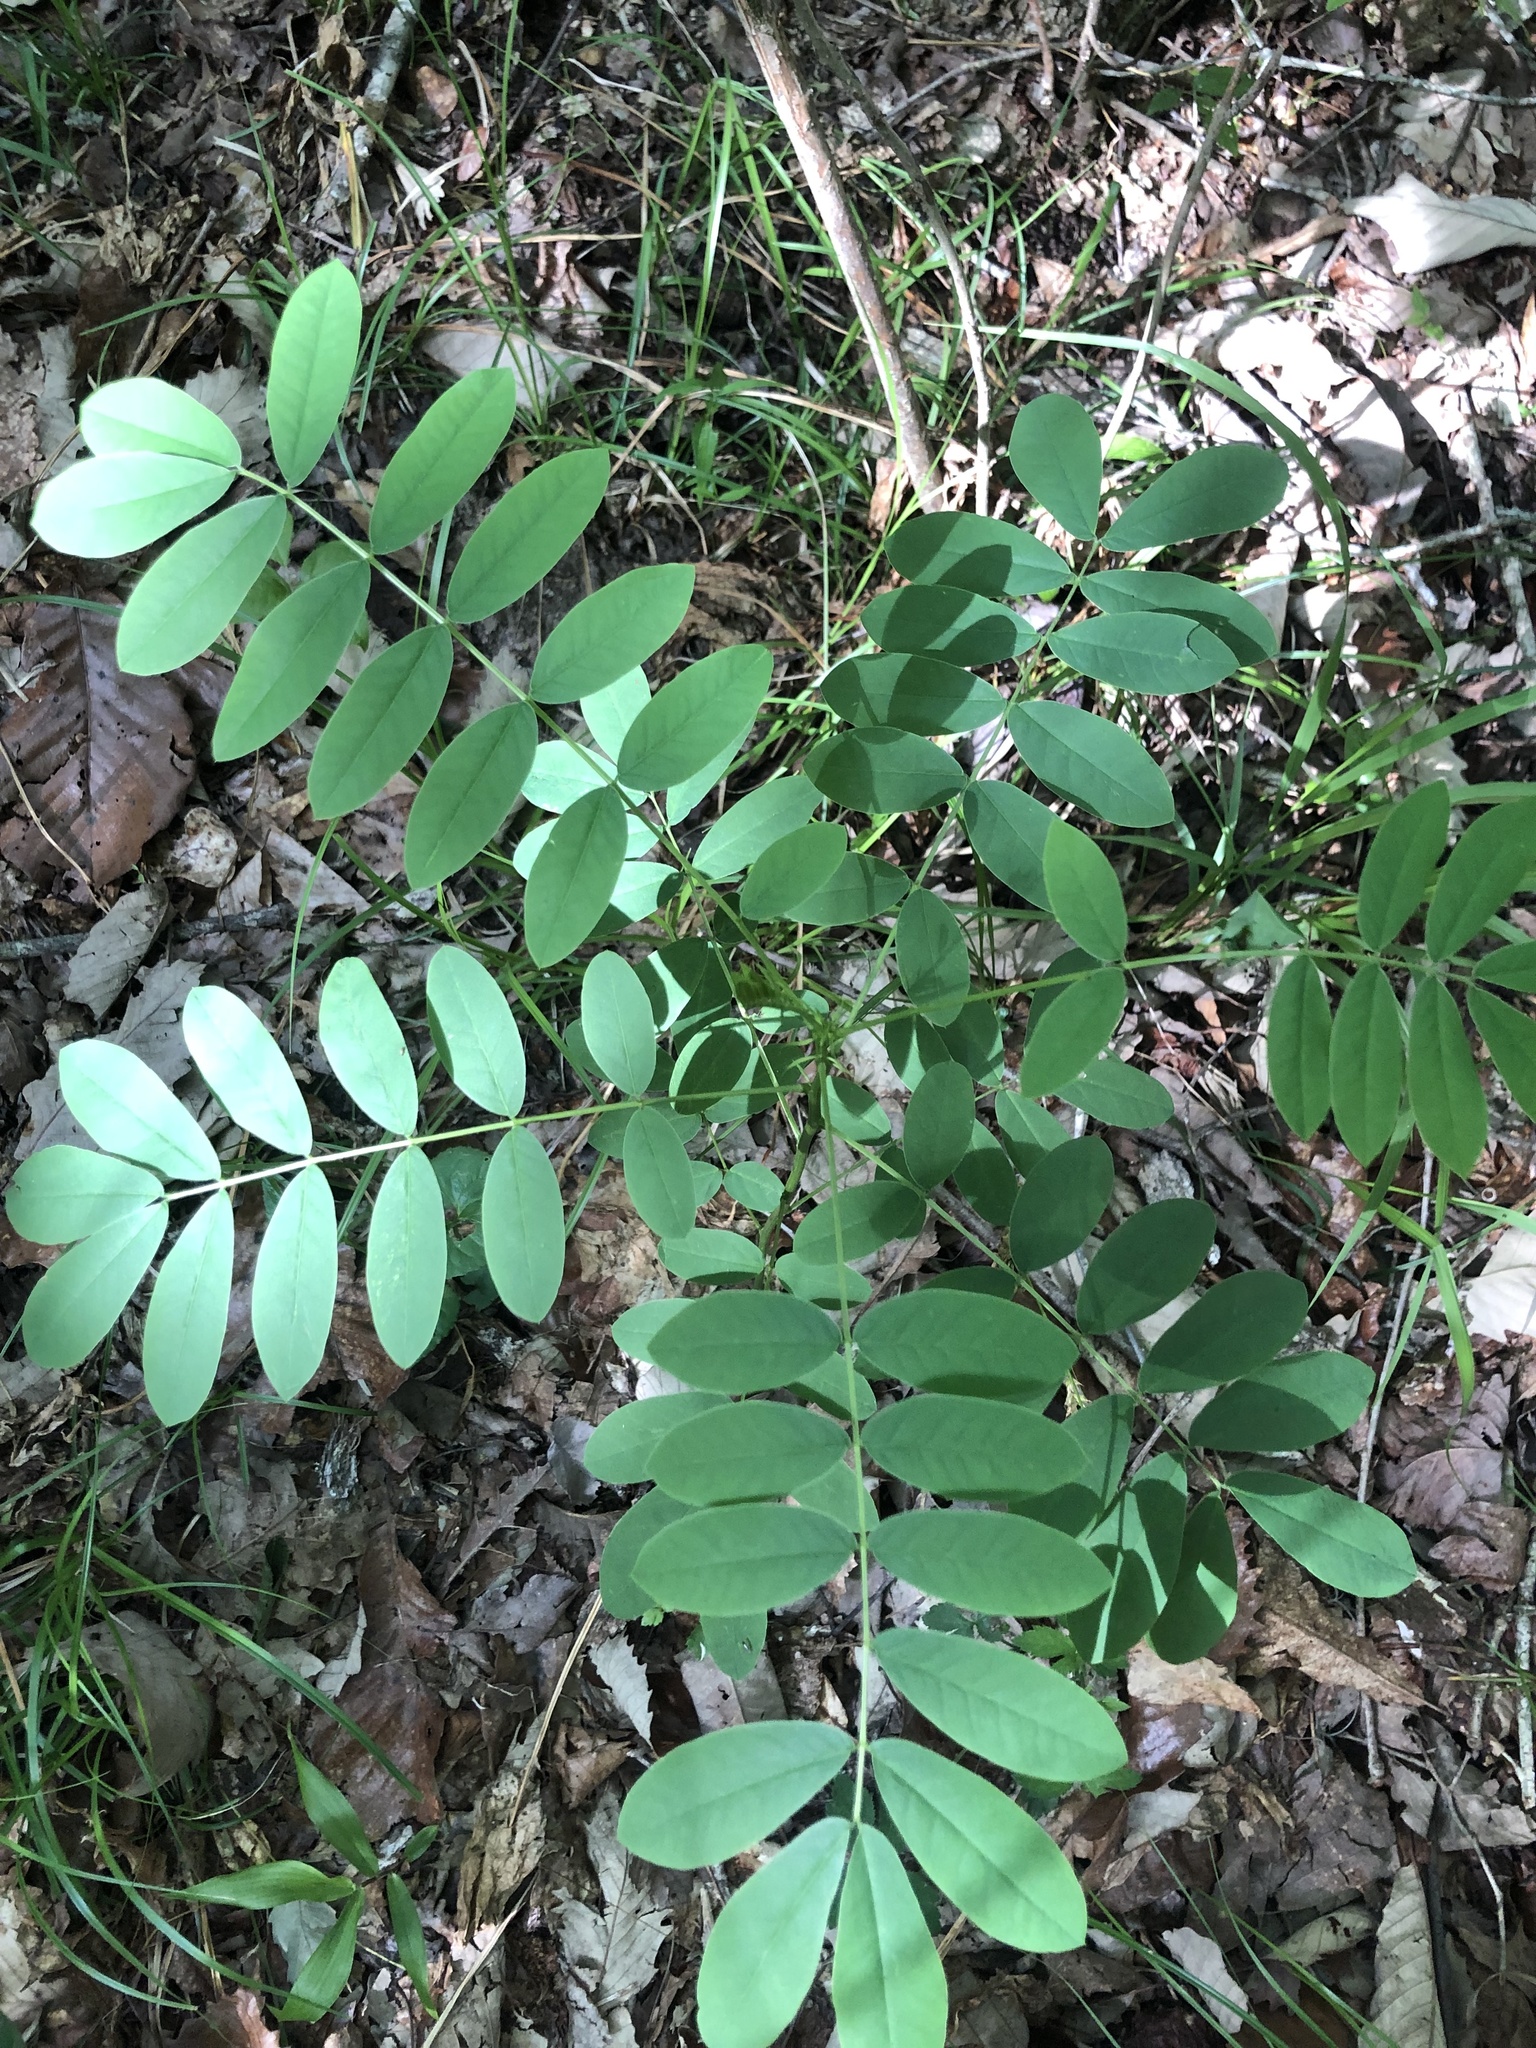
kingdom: Plantae
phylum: Tracheophyta
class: Magnoliopsida
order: Fabales
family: Fabaceae
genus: Senna
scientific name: Senna marilandica
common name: American senna
